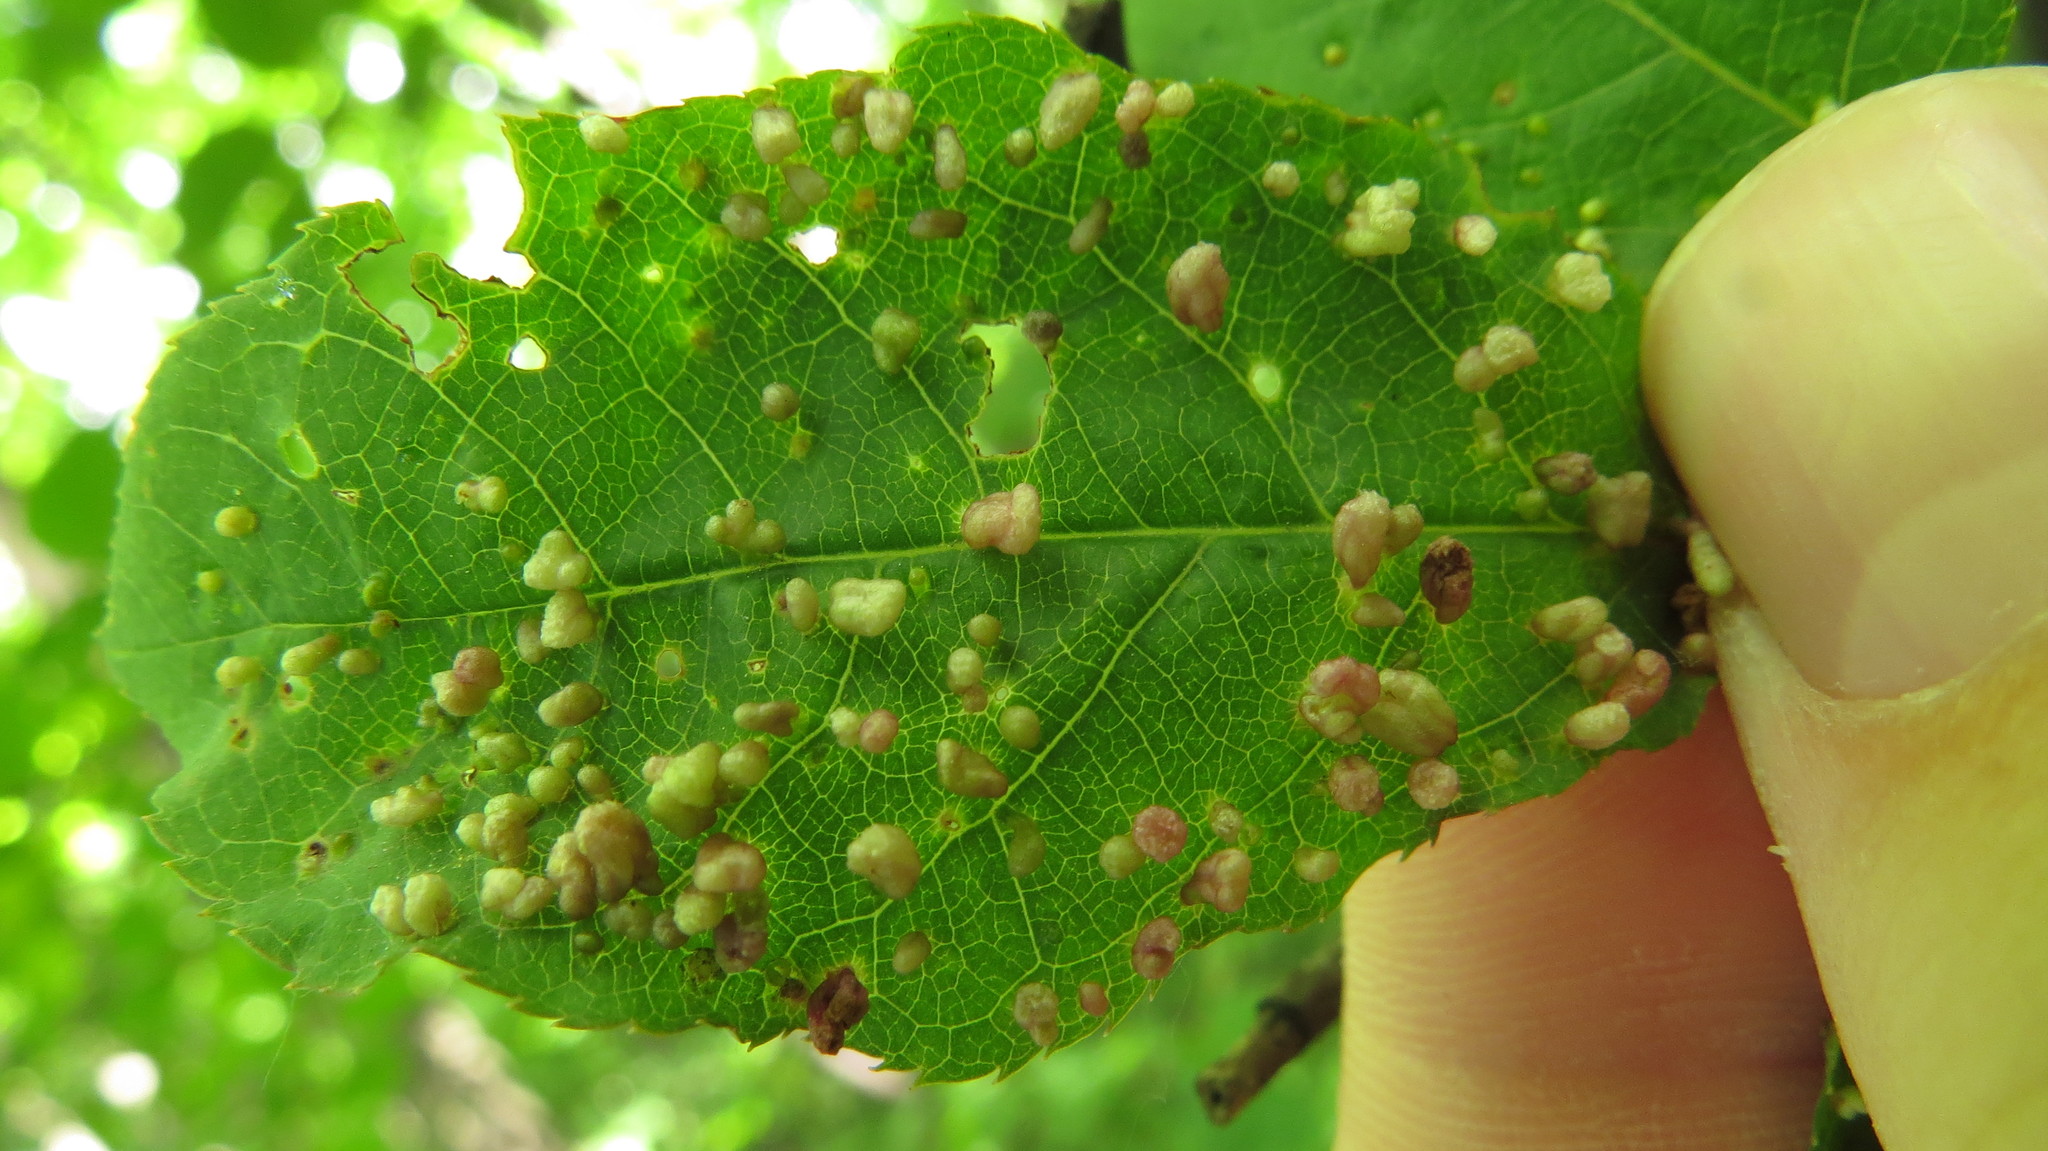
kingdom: Animalia
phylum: Arthropoda
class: Arachnida
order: Trombidiformes
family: Eriophyidae
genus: Eriophyes
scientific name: Eriophyes emarginatae
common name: Plum leaf gall mite
